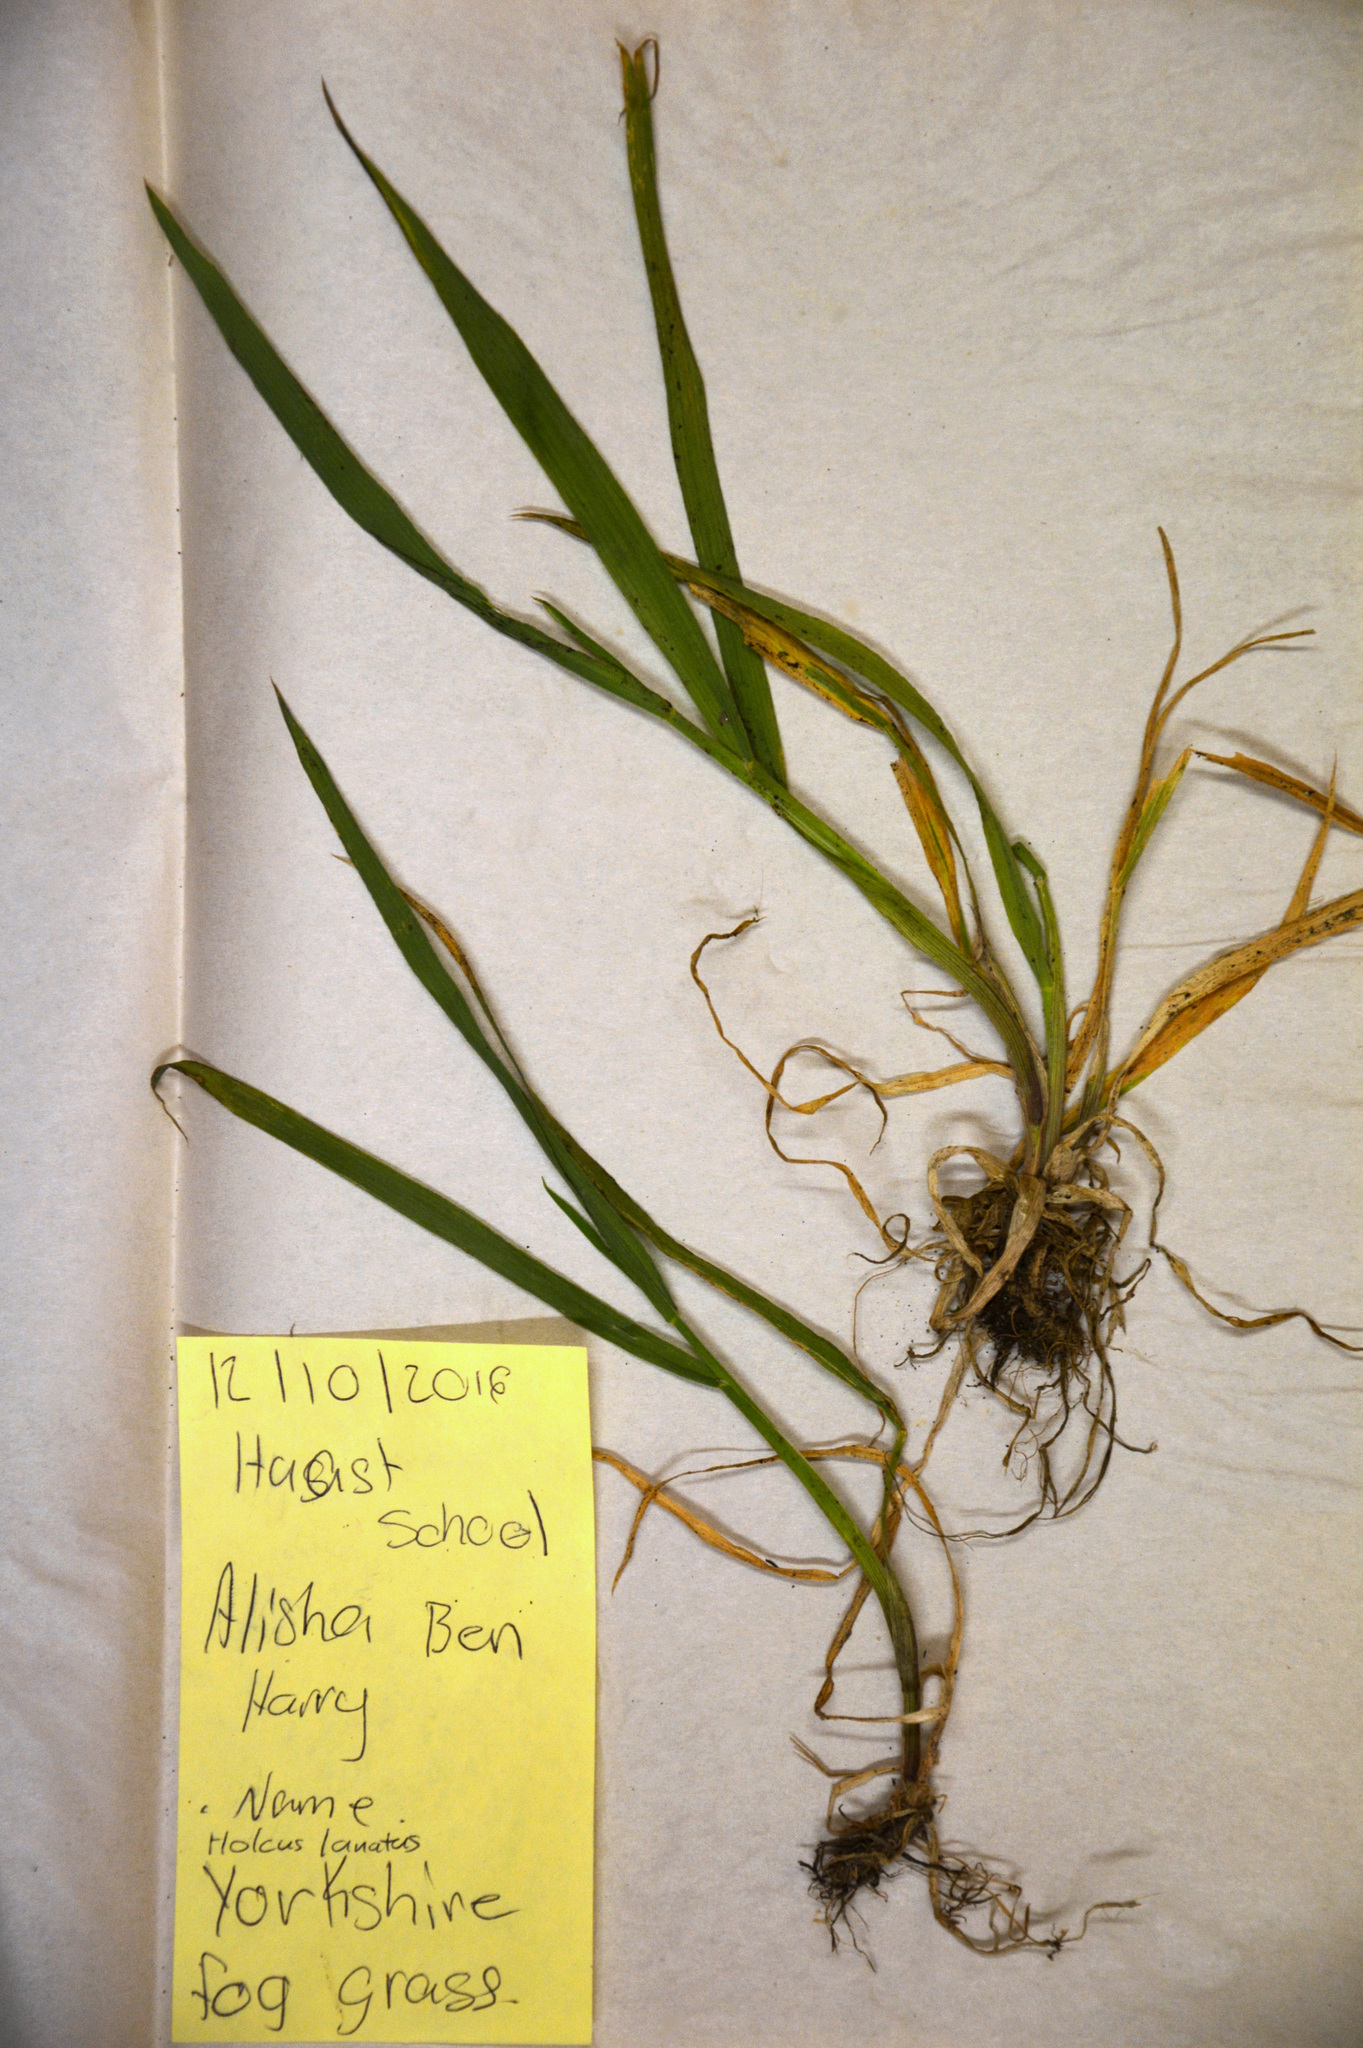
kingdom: Plantae
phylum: Tracheophyta
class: Liliopsida
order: Poales
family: Poaceae
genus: Holcus
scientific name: Holcus lanatus
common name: Yorkshire-fog
